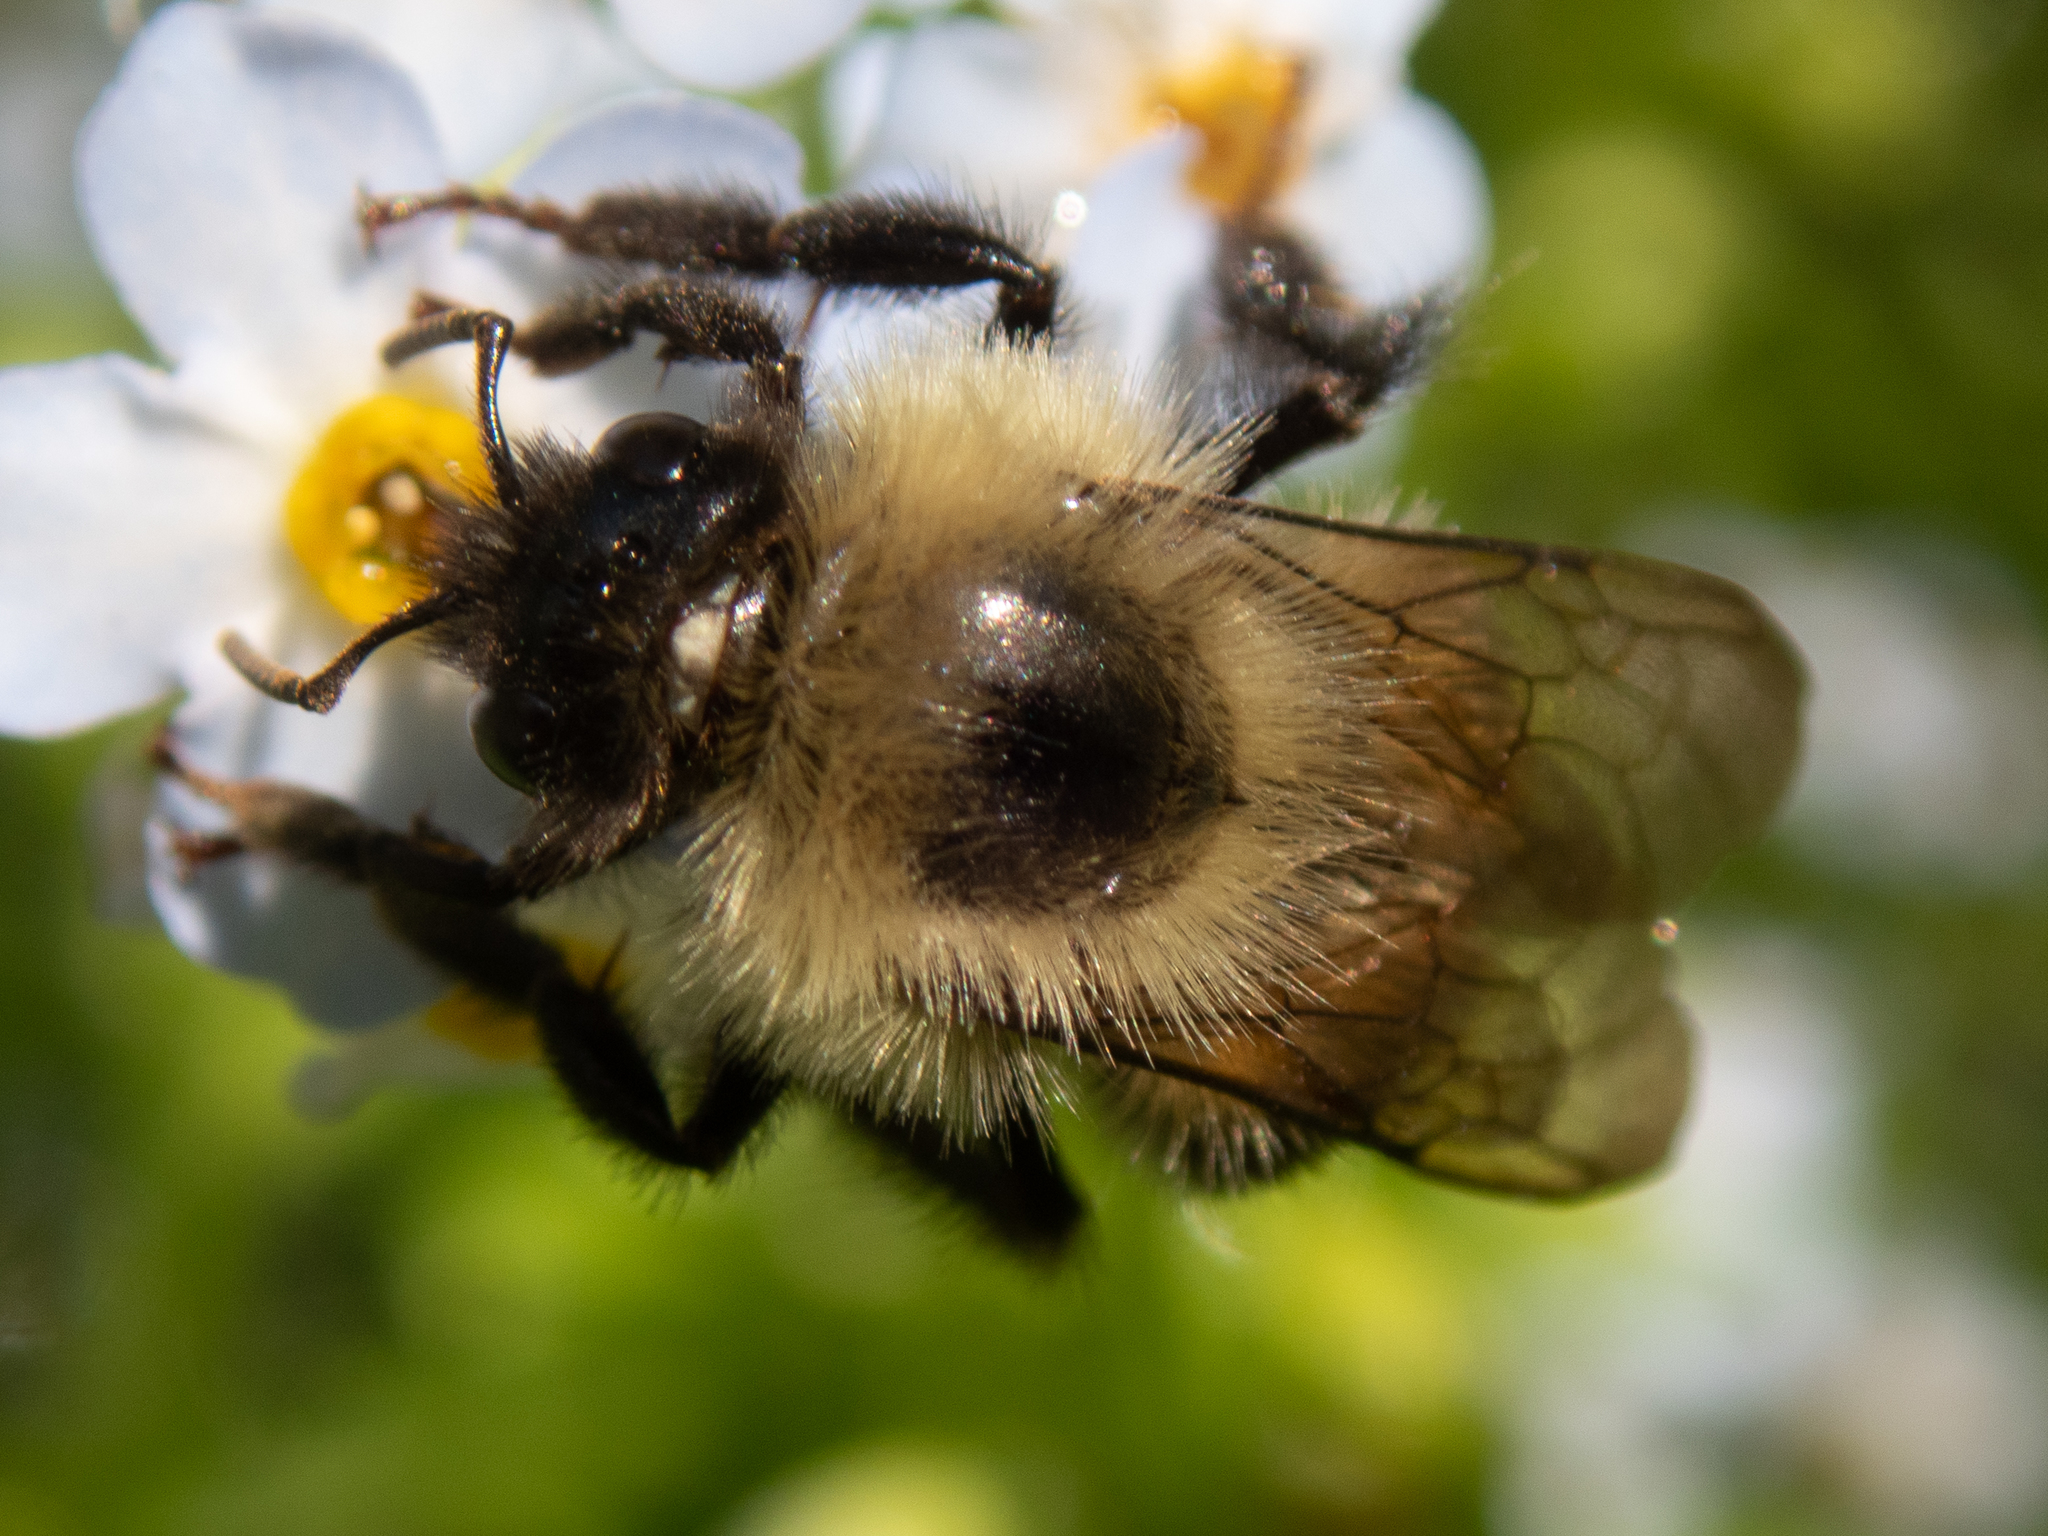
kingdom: Animalia
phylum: Arthropoda
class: Insecta
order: Hymenoptera
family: Apidae
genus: Bombus
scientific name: Bombus impatiens
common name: Common eastern bumble bee
